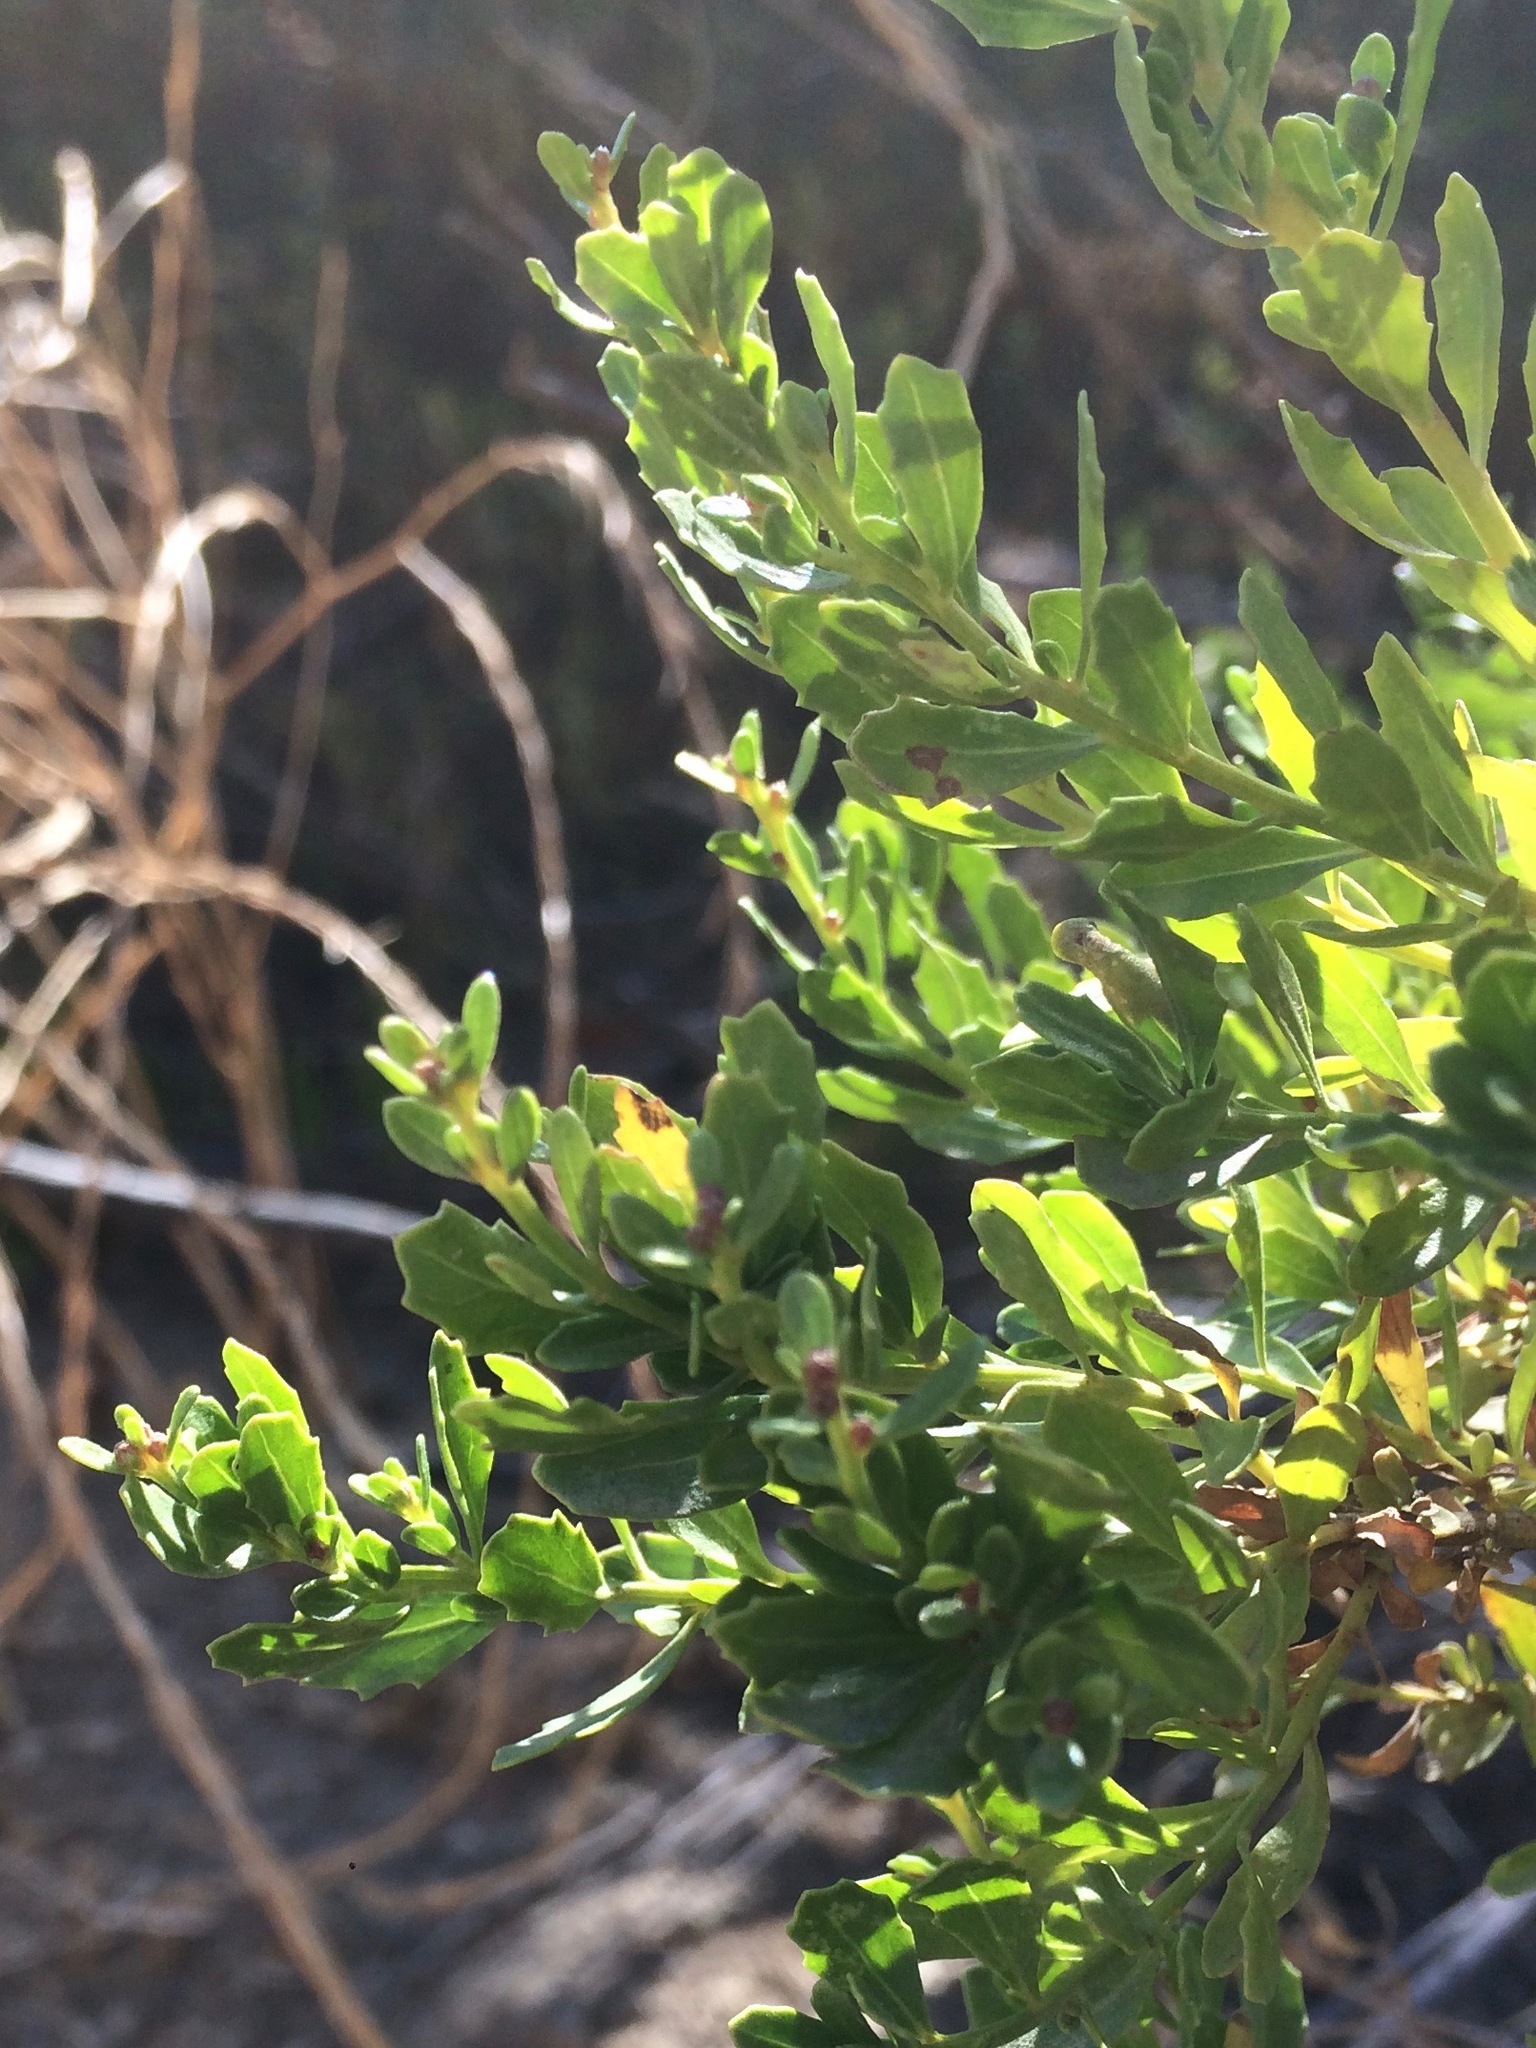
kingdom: Plantae
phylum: Tracheophyta
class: Magnoliopsida
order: Asterales
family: Asteraceae
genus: Baccharis
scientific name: Baccharis pilularis
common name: Coyotebrush
